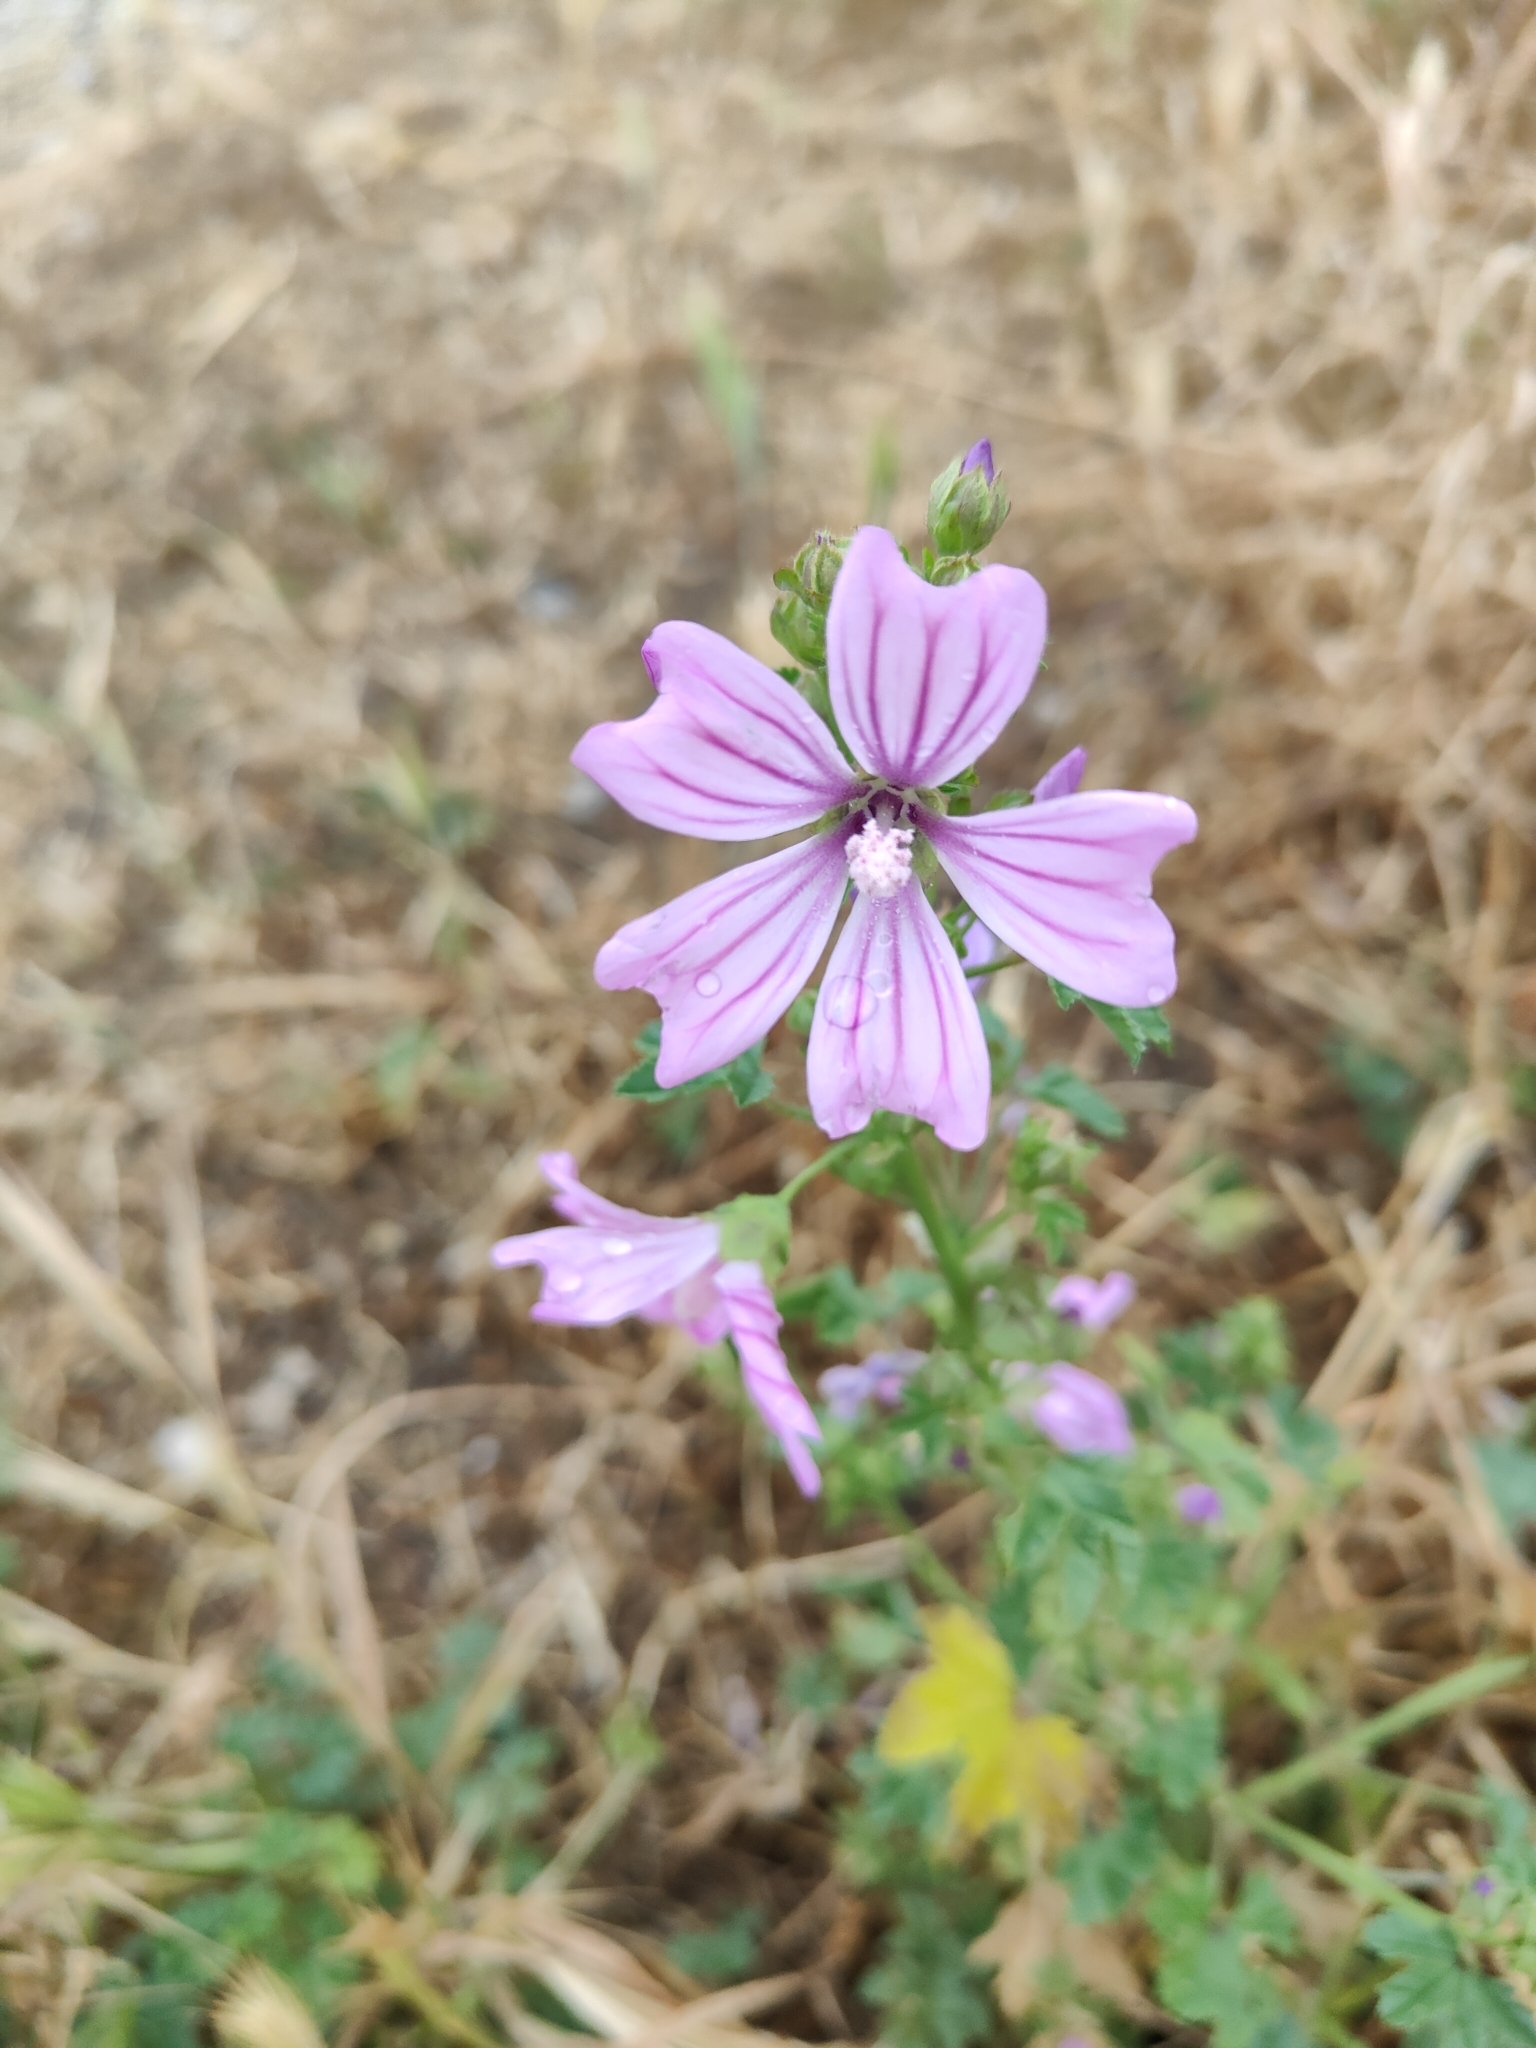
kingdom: Plantae
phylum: Tracheophyta
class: Magnoliopsida
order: Malvales
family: Malvaceae
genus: Malva
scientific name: Malva sylvestris
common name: Common mallow
